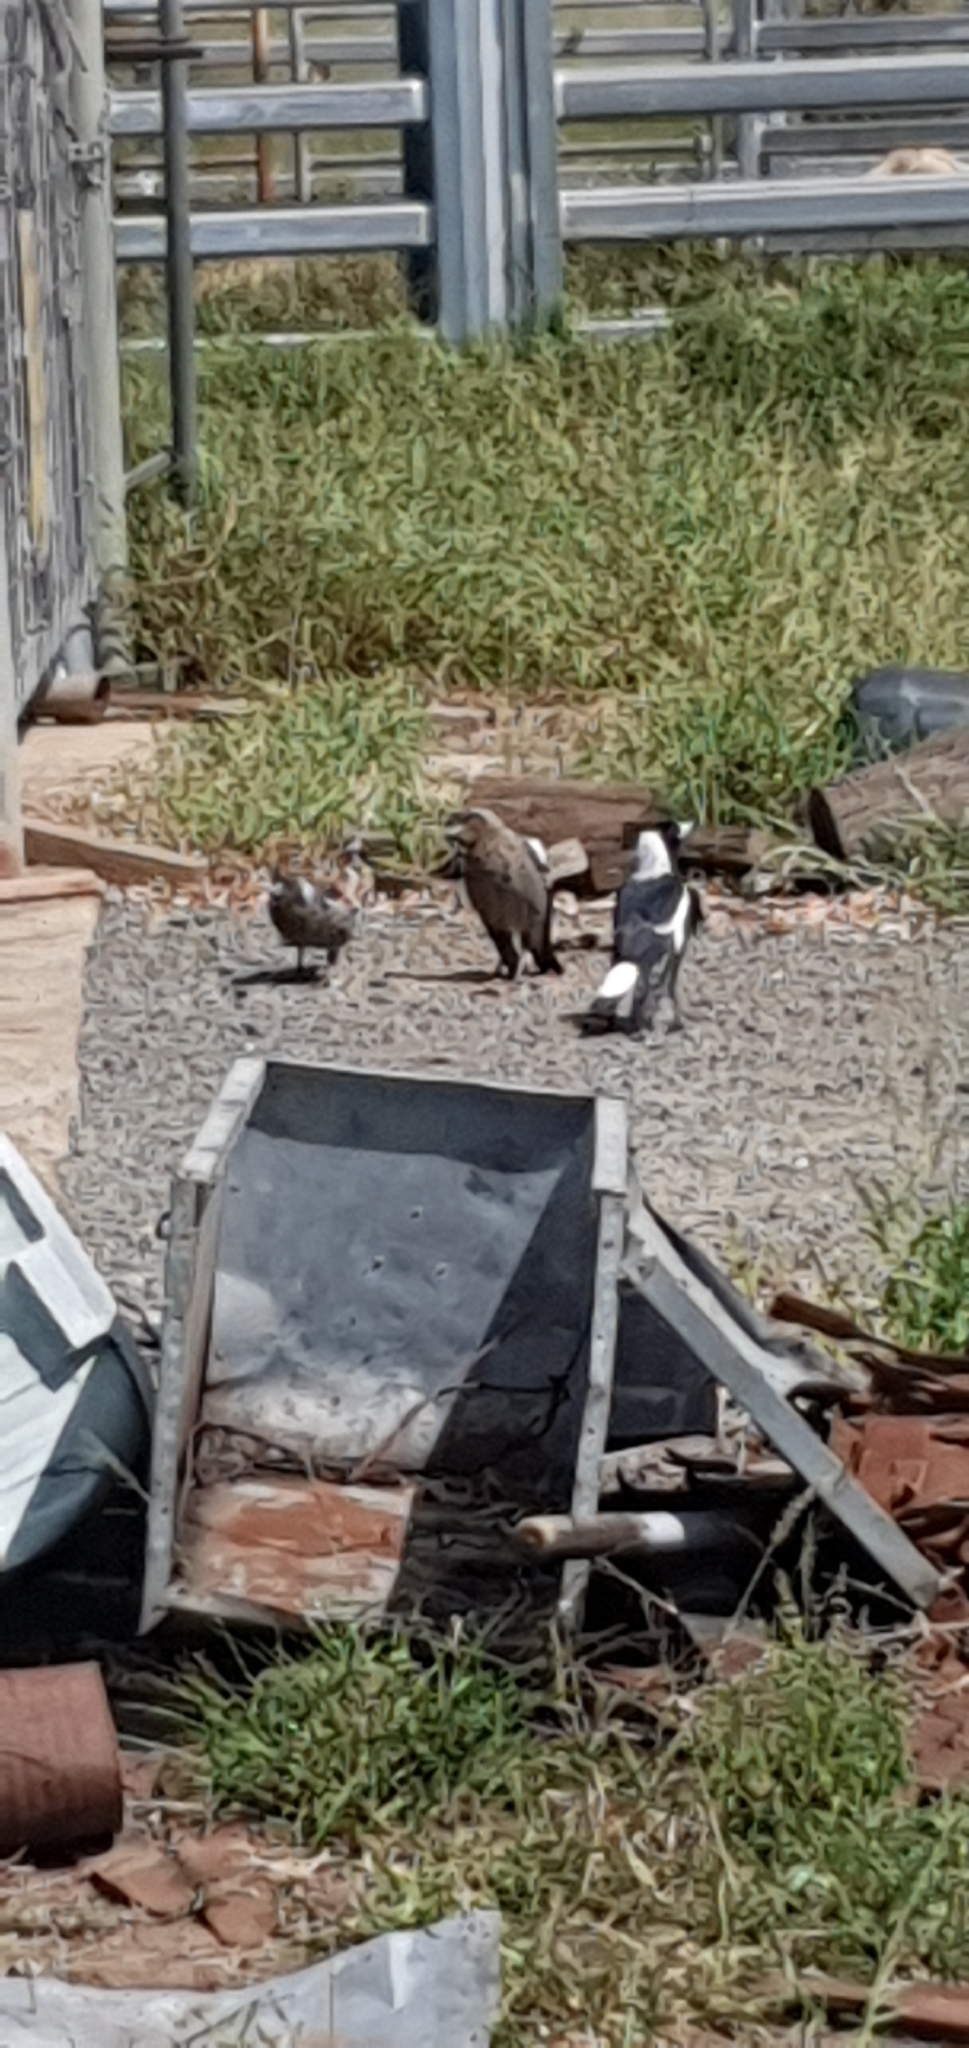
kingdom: Animalia
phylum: Chordata
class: Aves
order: Passeriformes
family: Cracticidae
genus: Gymnorhina
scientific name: Gymnorhina tibicen
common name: Australian magpie
